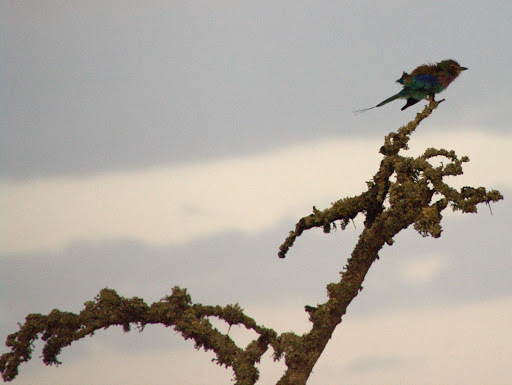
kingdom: Animalia
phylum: Chordata
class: Aves
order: Coraciiformes
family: Coraciidae
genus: Coracias
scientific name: Coracias caudatus
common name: Lilac-breasted roller
